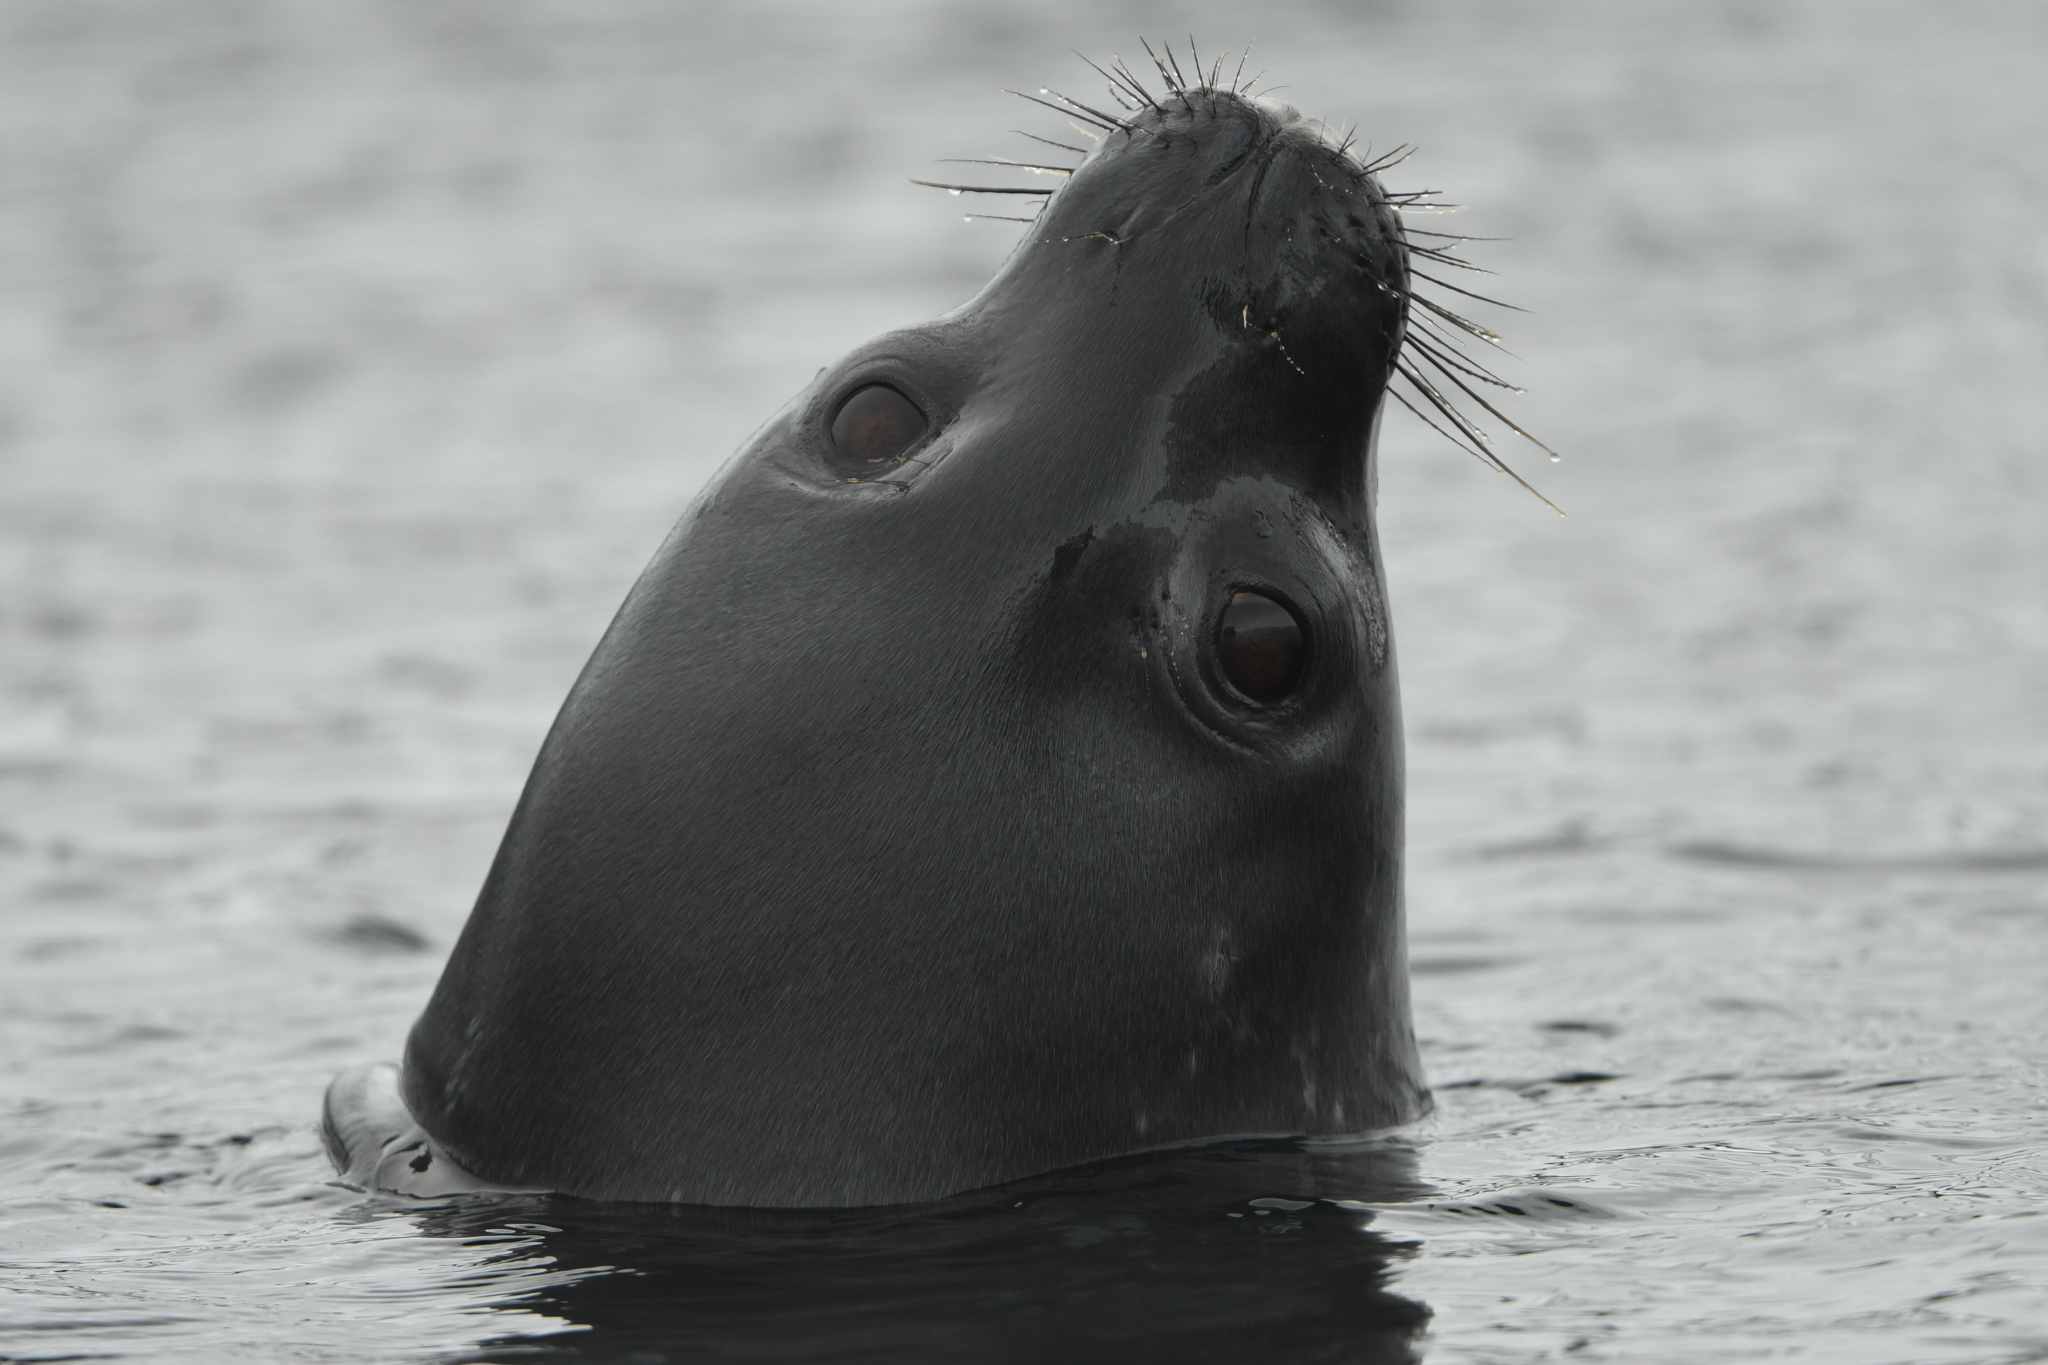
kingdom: Animalia
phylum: Chordata
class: Mammalia
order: Carnivora
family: Phocidae
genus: Leptonychotes
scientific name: Leptonychotes weddellii
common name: Weddell seal
